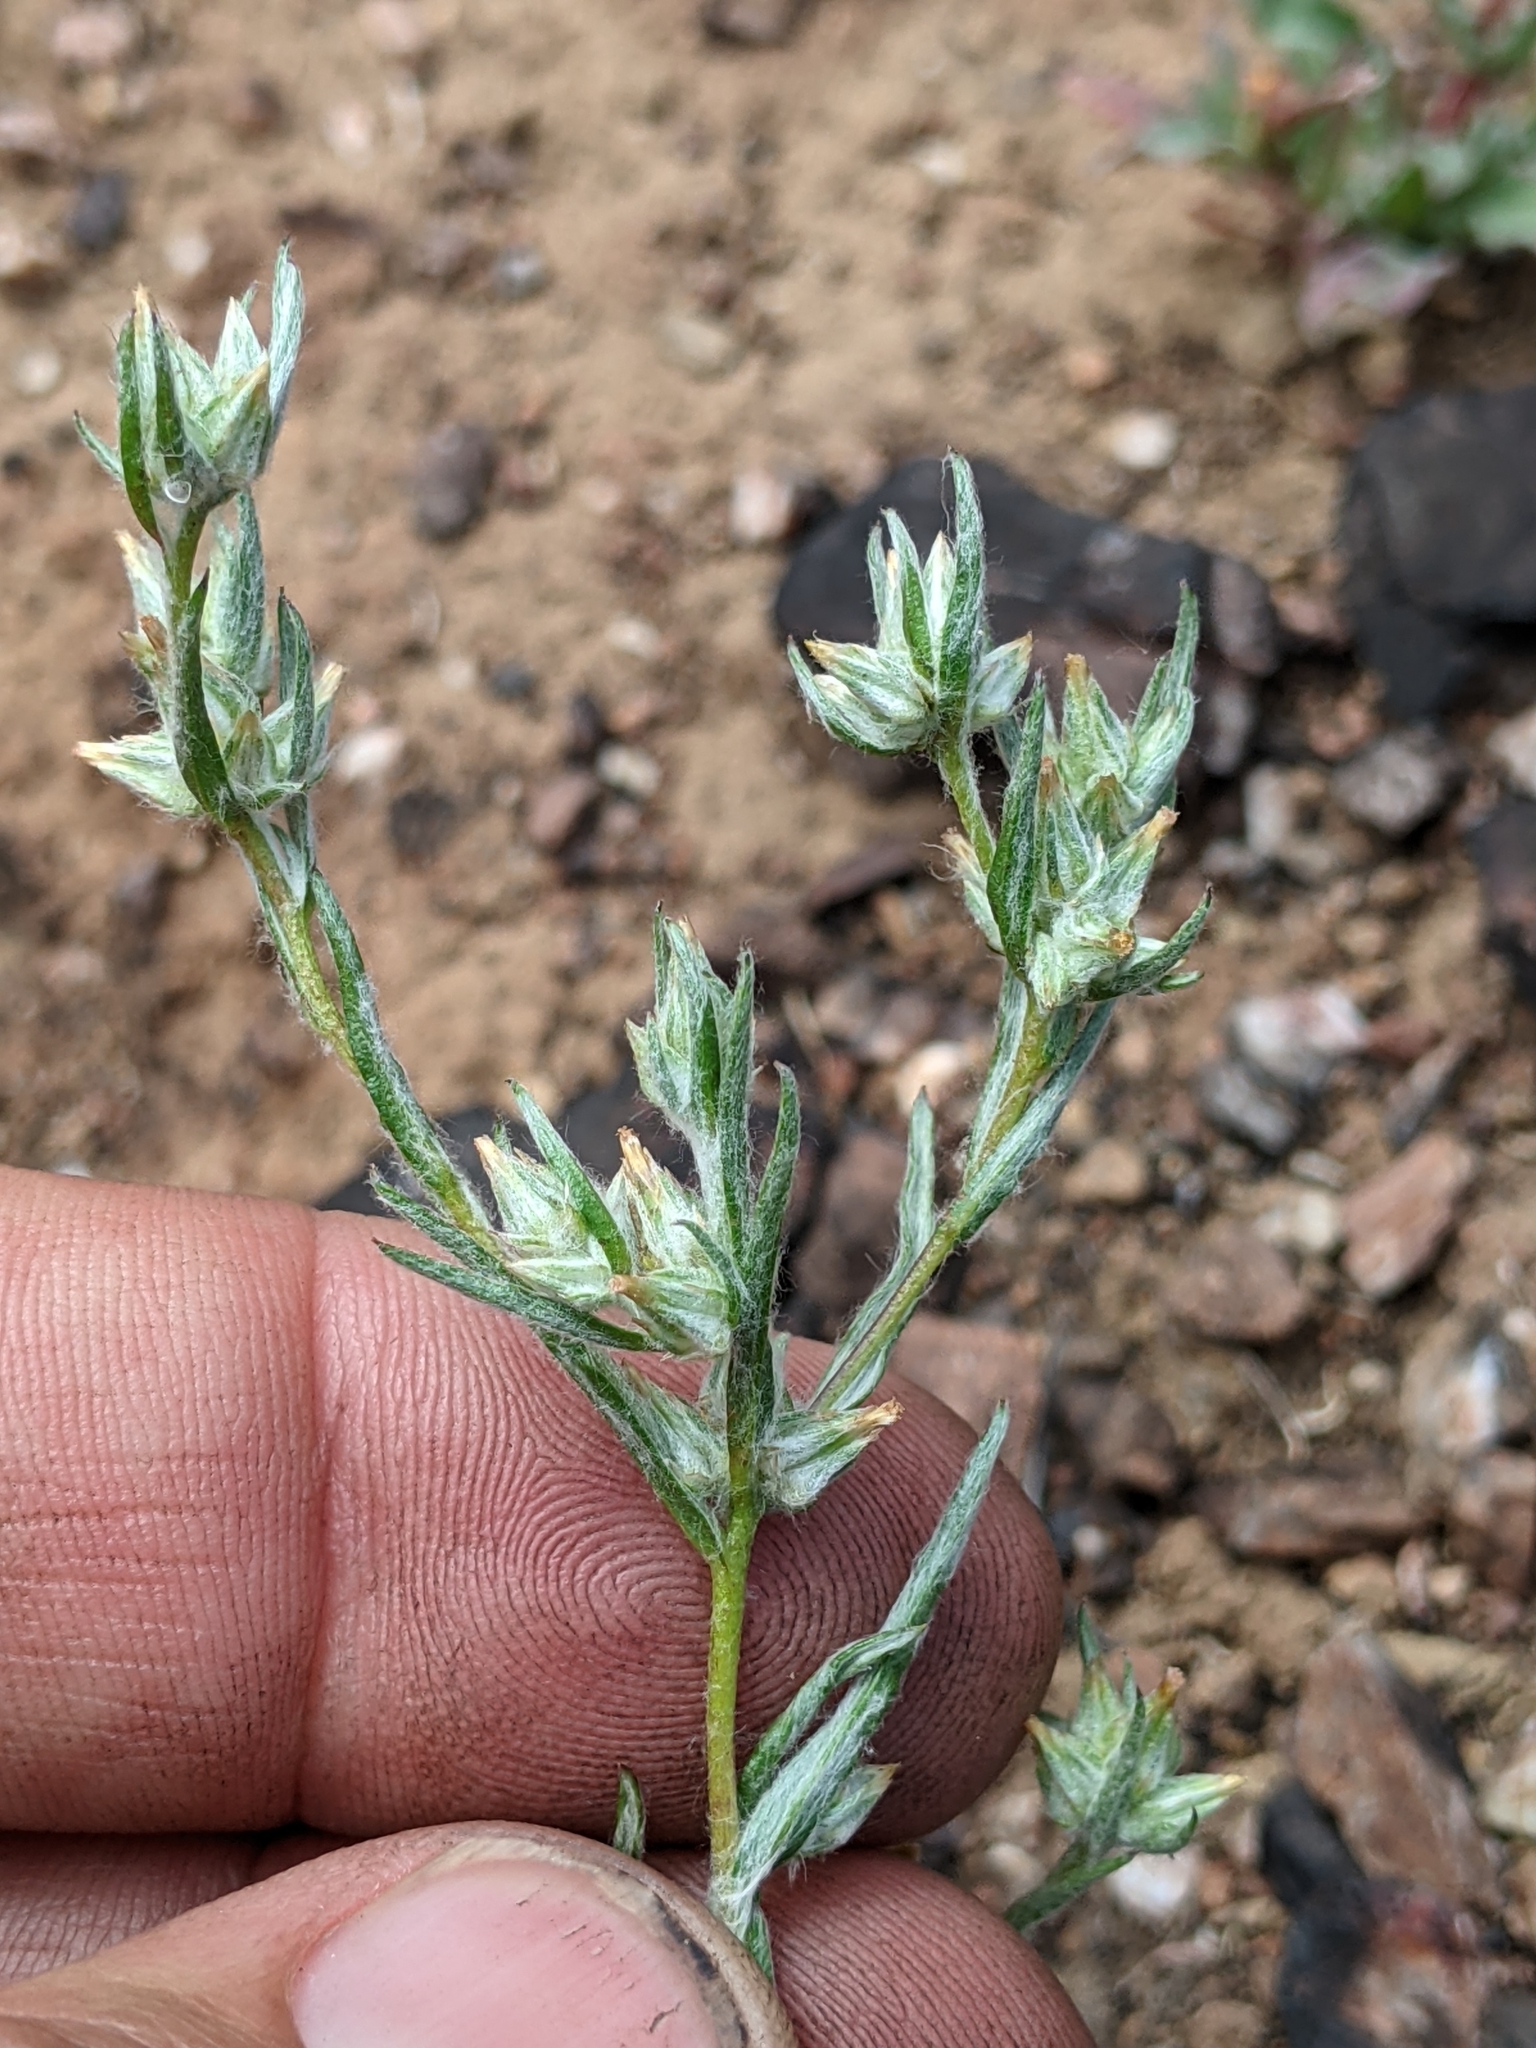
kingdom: Plantae
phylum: Tracheophyta
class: Magnoliopsida
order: Asterales
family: Asteraceae
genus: Logfia
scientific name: Logfia gallica
